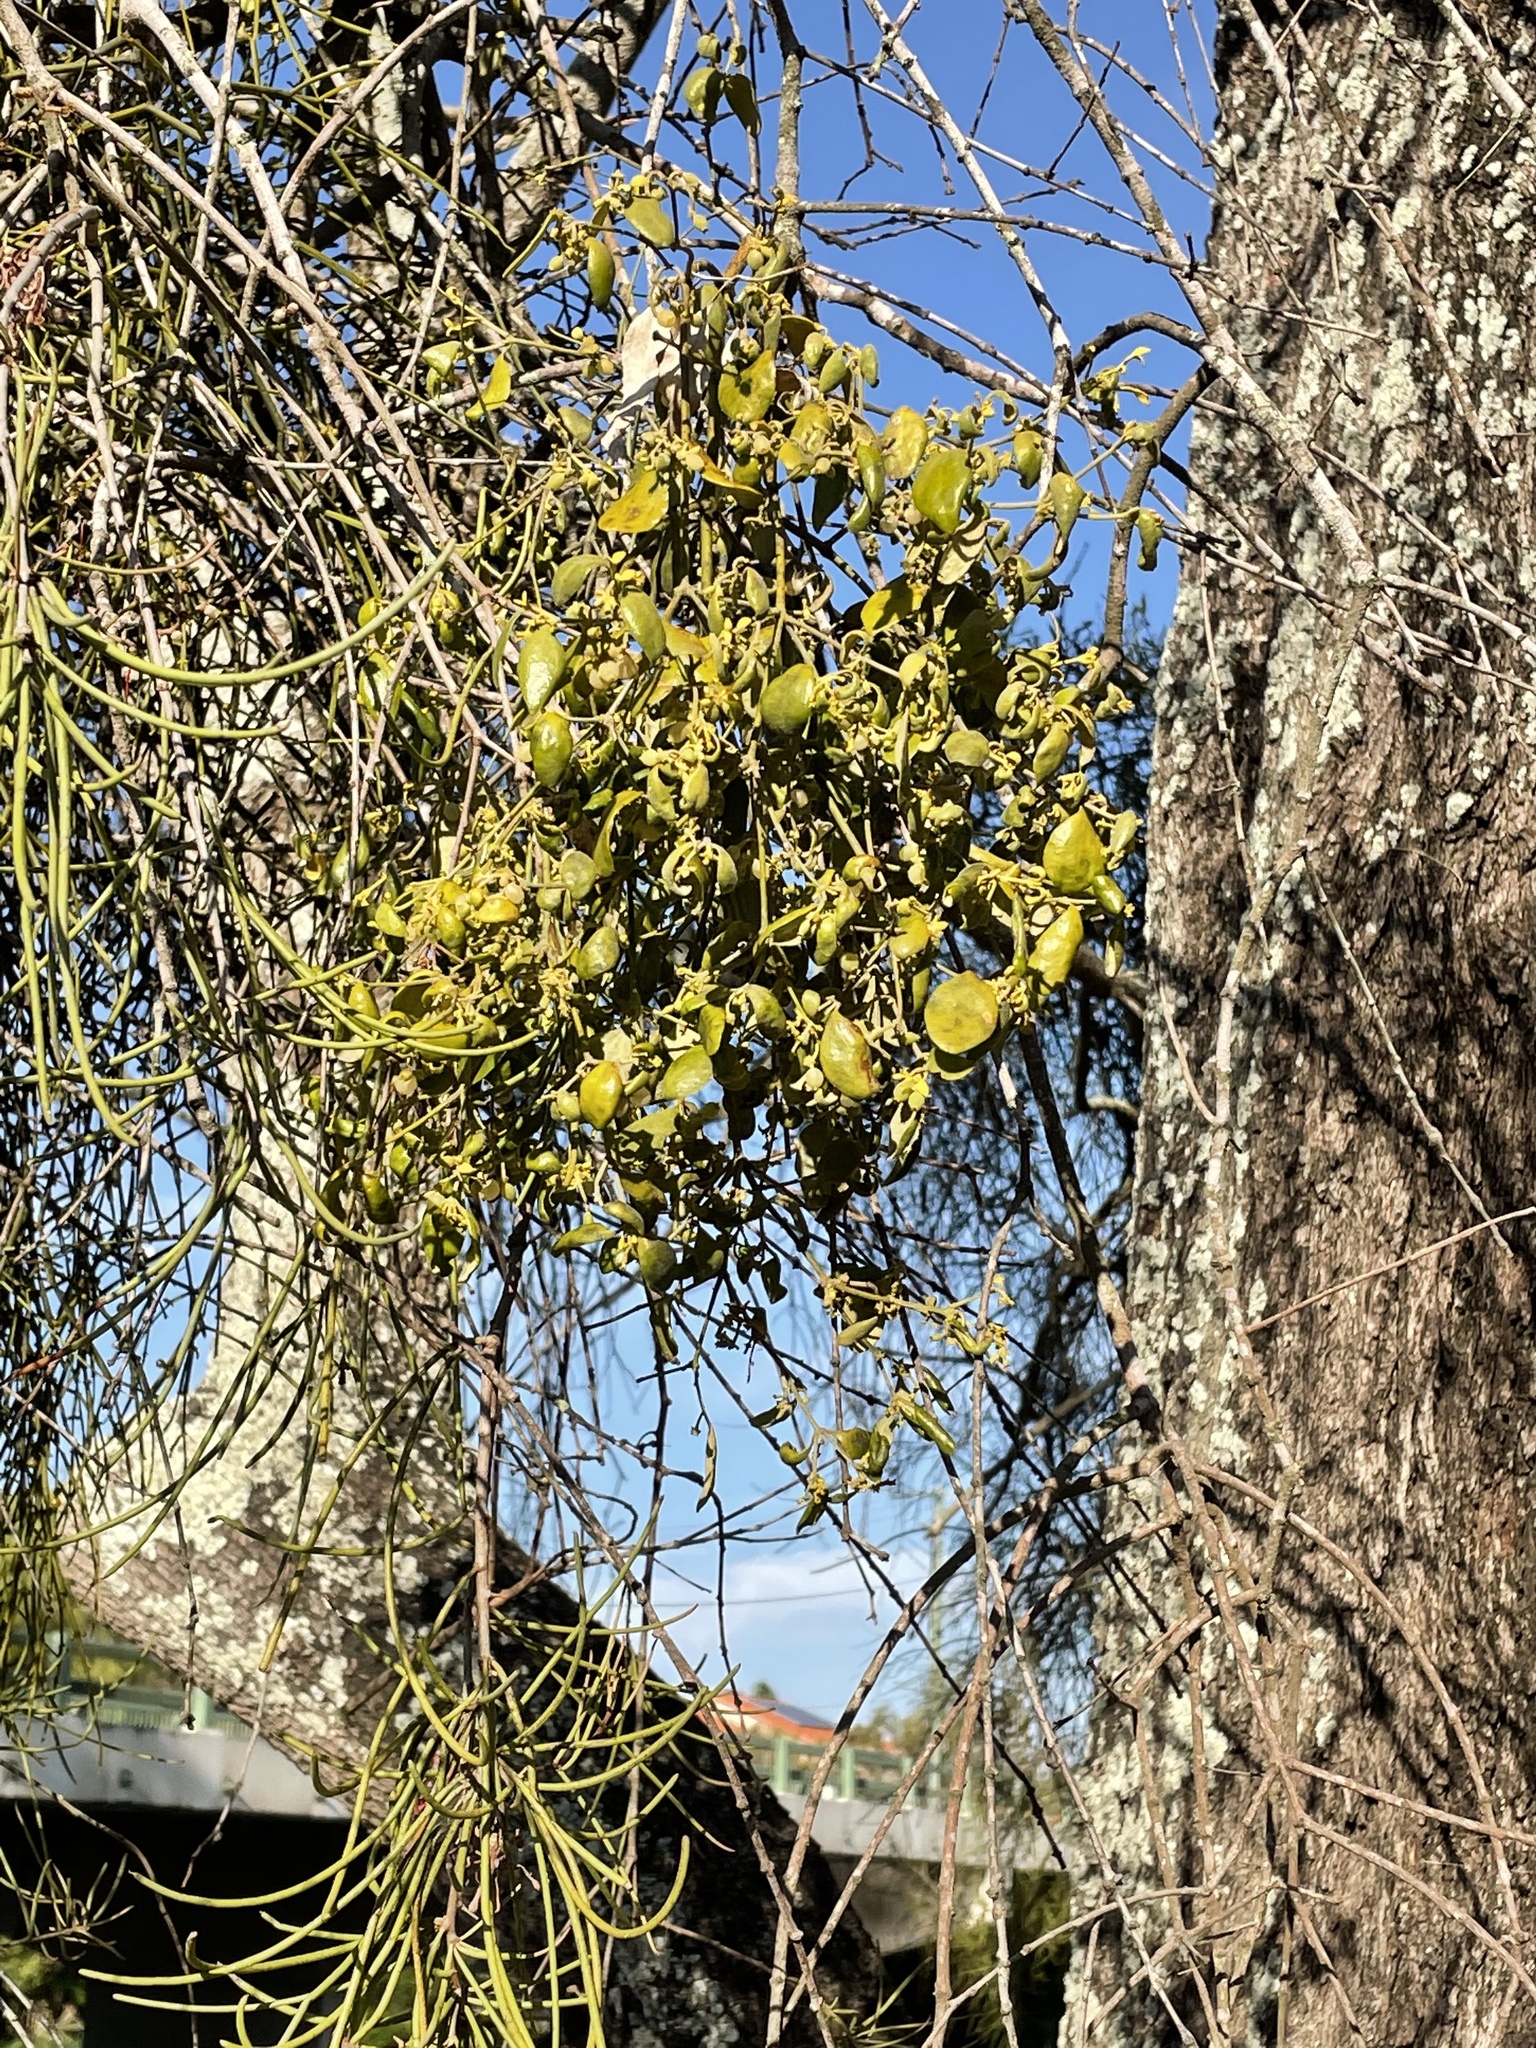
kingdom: Plantae
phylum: Tracheophyta
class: Magnoliopsida
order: Santalales
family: Viscaceae
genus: Notothixos
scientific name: Notothixos subaureus
